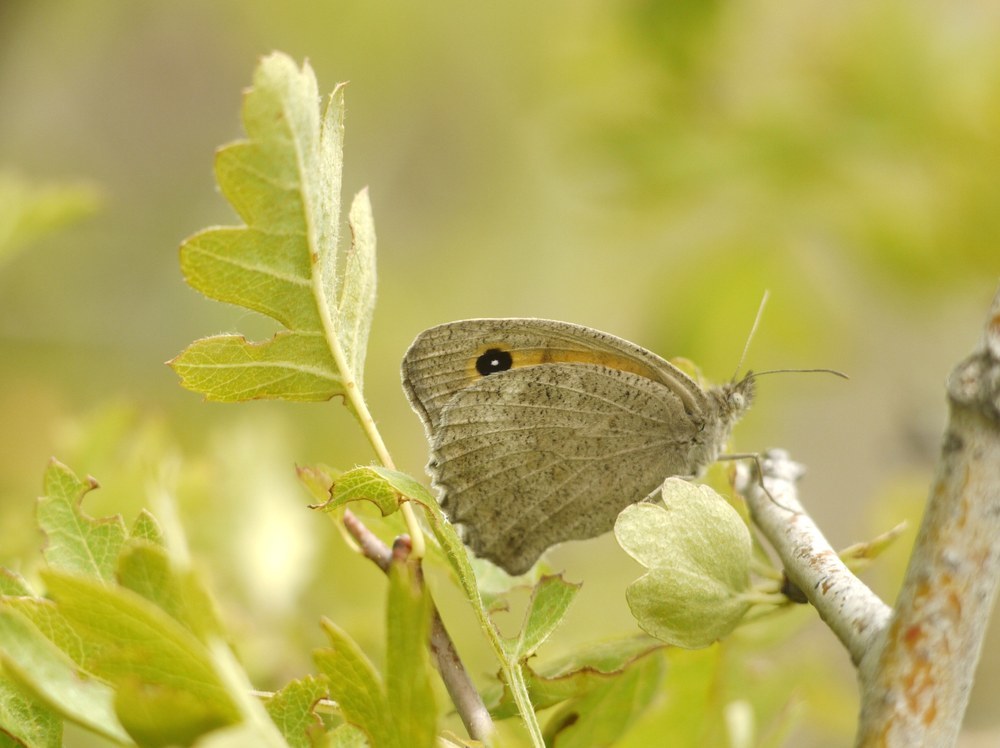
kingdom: Animalia
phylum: Arthropoda
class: Insecta
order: Lepidoptera
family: Nymphalidae
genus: Hyponephele
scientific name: Hyponephele lupinus
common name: Oriental meadow brown
